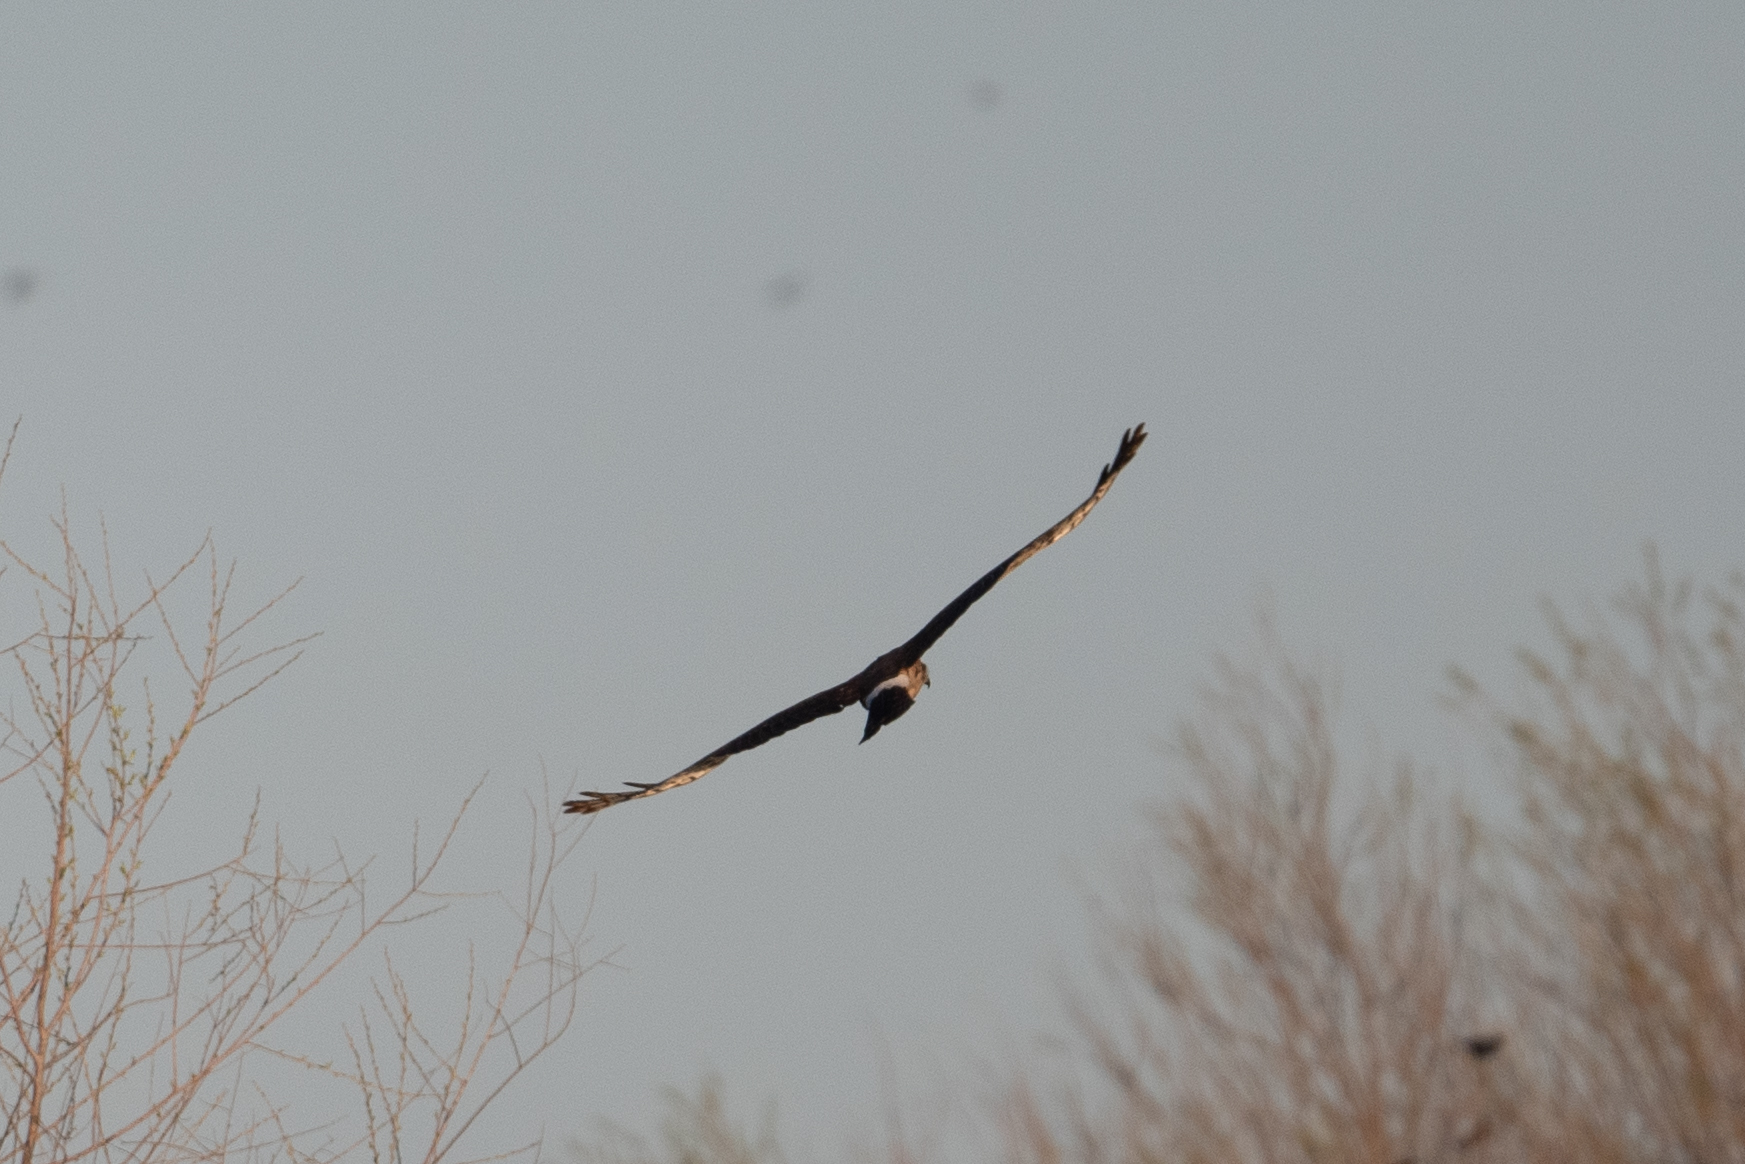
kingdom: Animalia
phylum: Chordata
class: Aves
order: Accipitriformes
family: Accipitridae
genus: Circus
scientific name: Circus cyaneus
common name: Hen harrier
